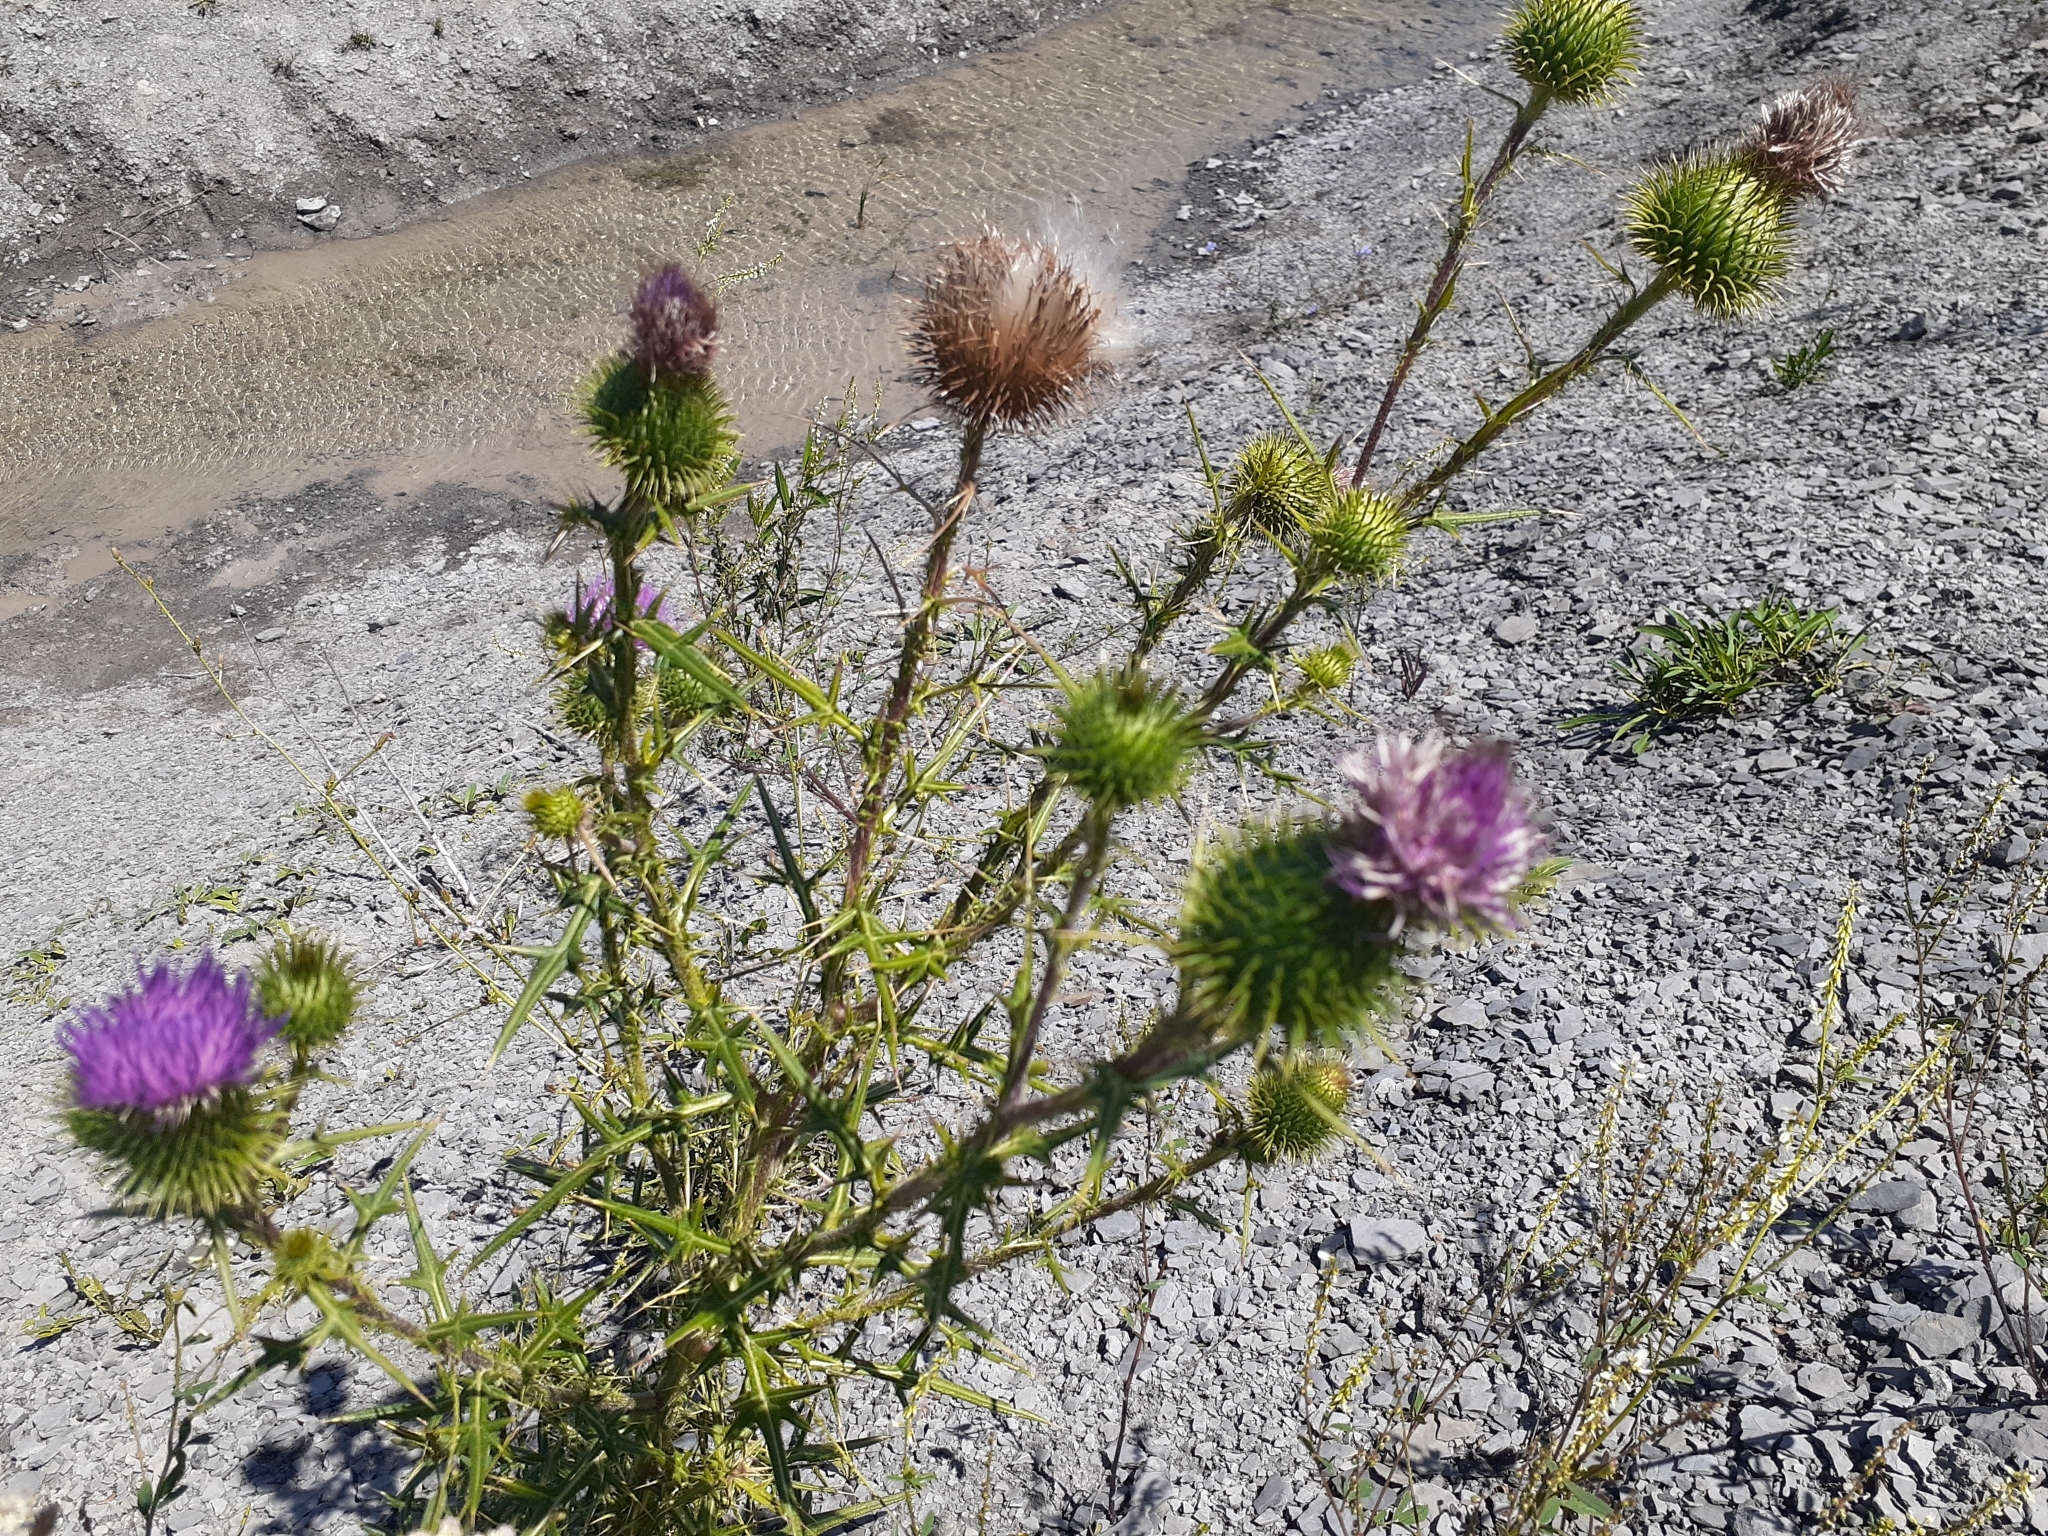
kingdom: Plantae
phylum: Tracheophyta
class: Magnoliopsida
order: Asterales
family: Asteraceae
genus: Cirsium
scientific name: Cirsium vulgare
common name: Bull thistle
